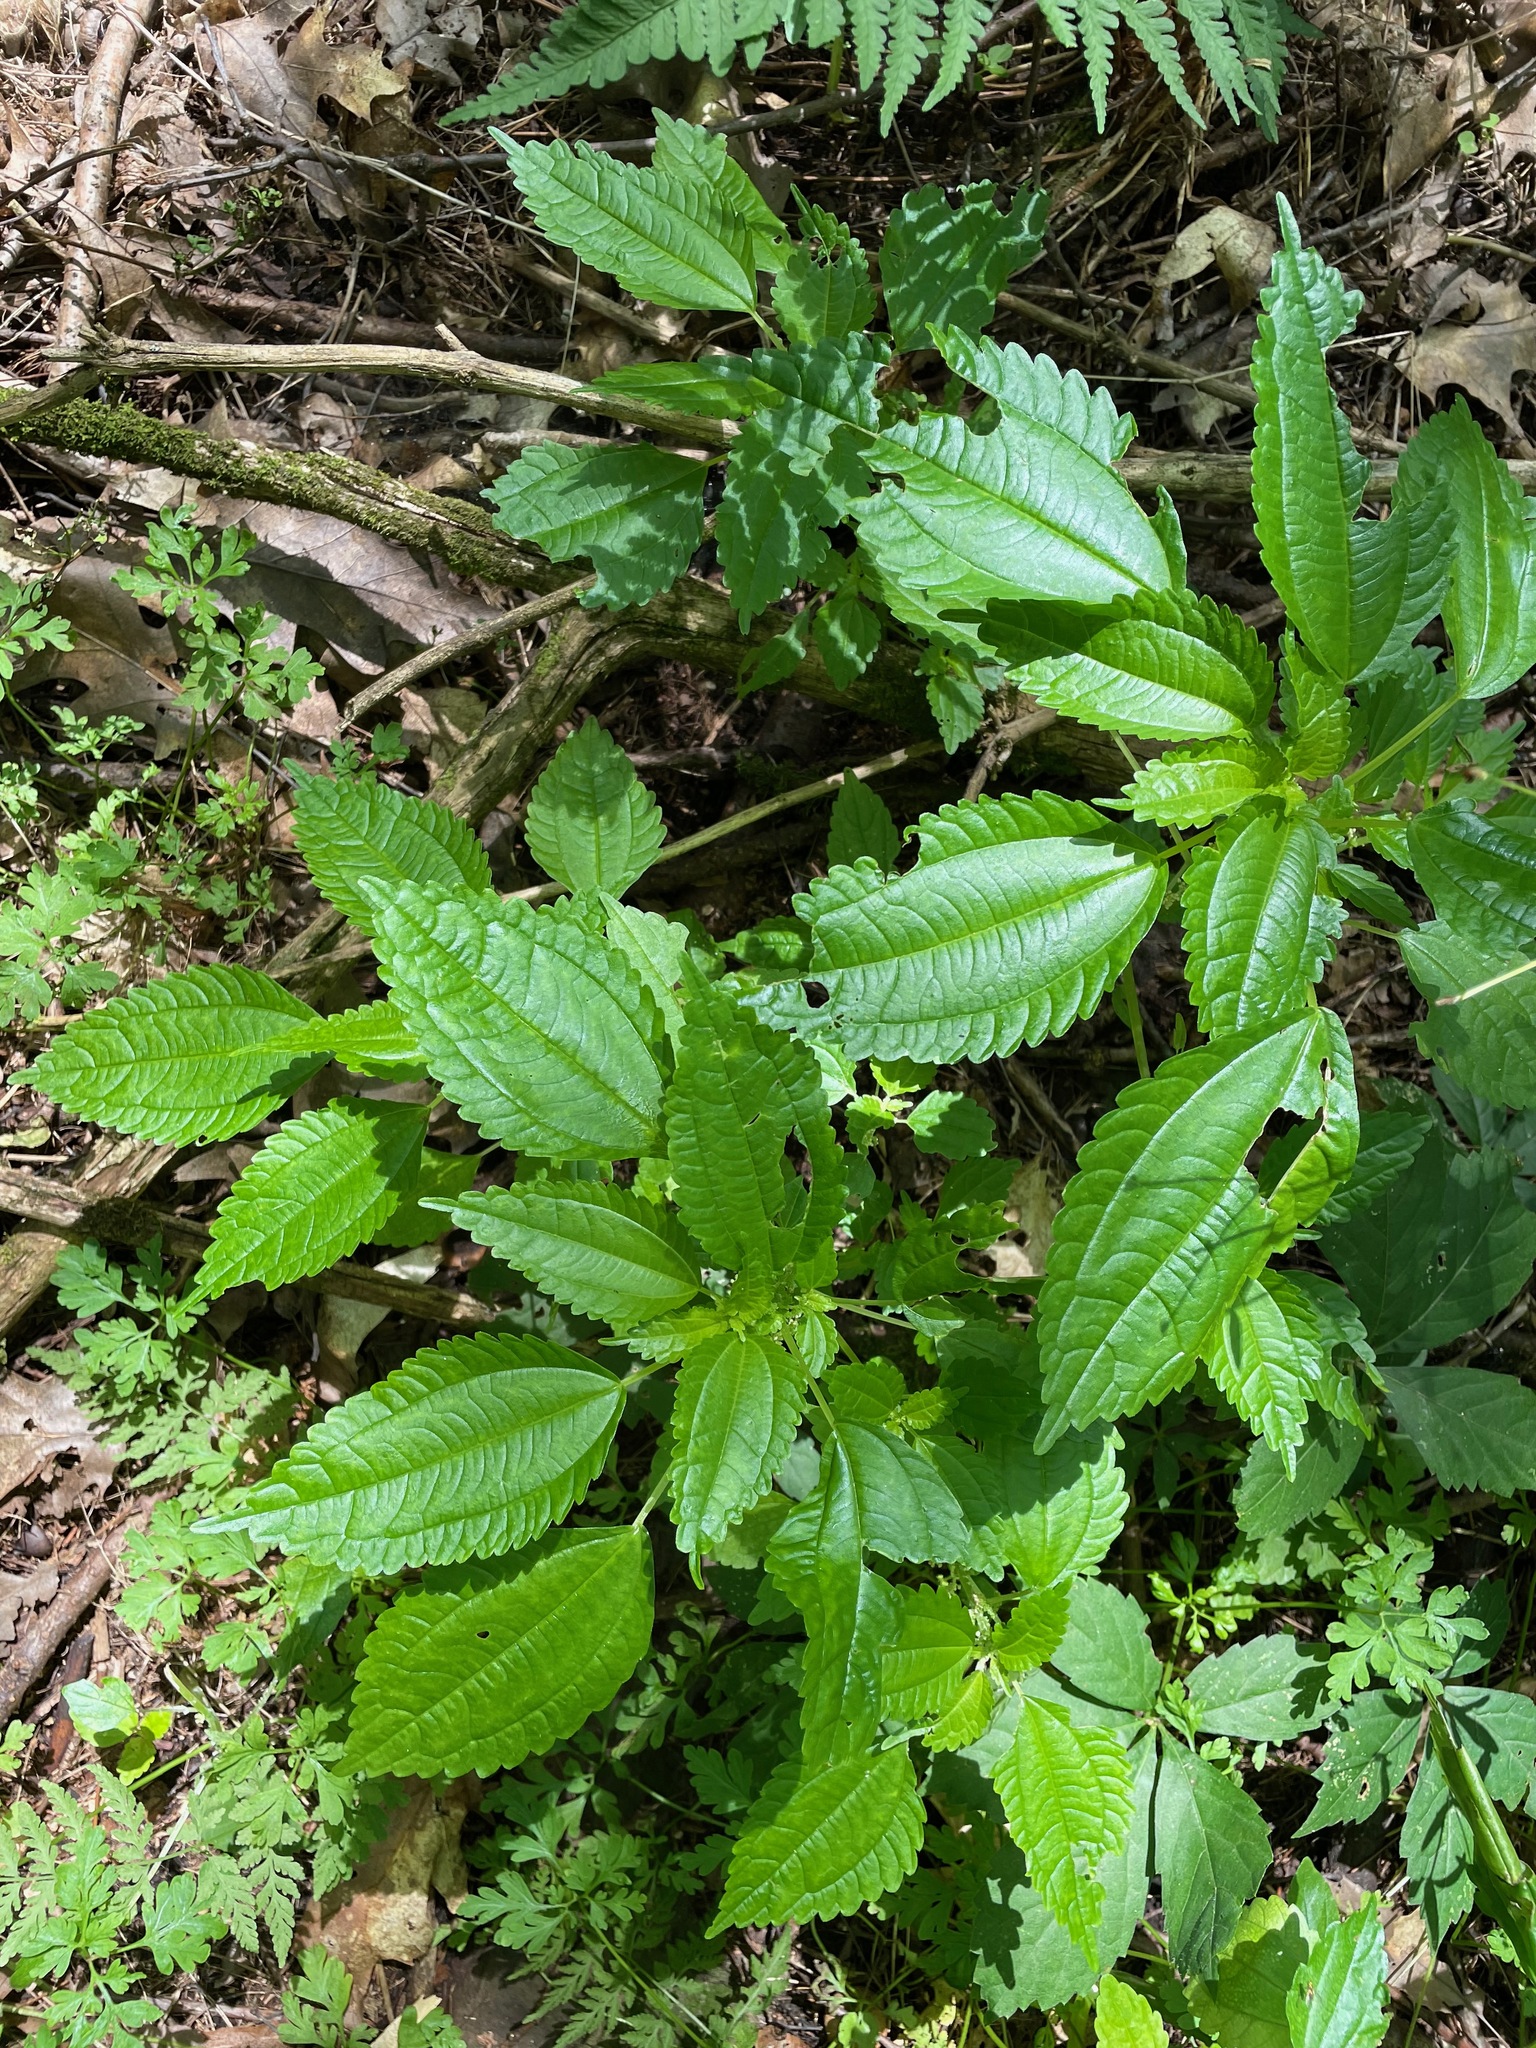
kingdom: Plantae
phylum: Tracheophyta
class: Magnoliopsida
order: Rosales
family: Urticaceae
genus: Pilea
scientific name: Pilea pumila
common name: Clearweed
